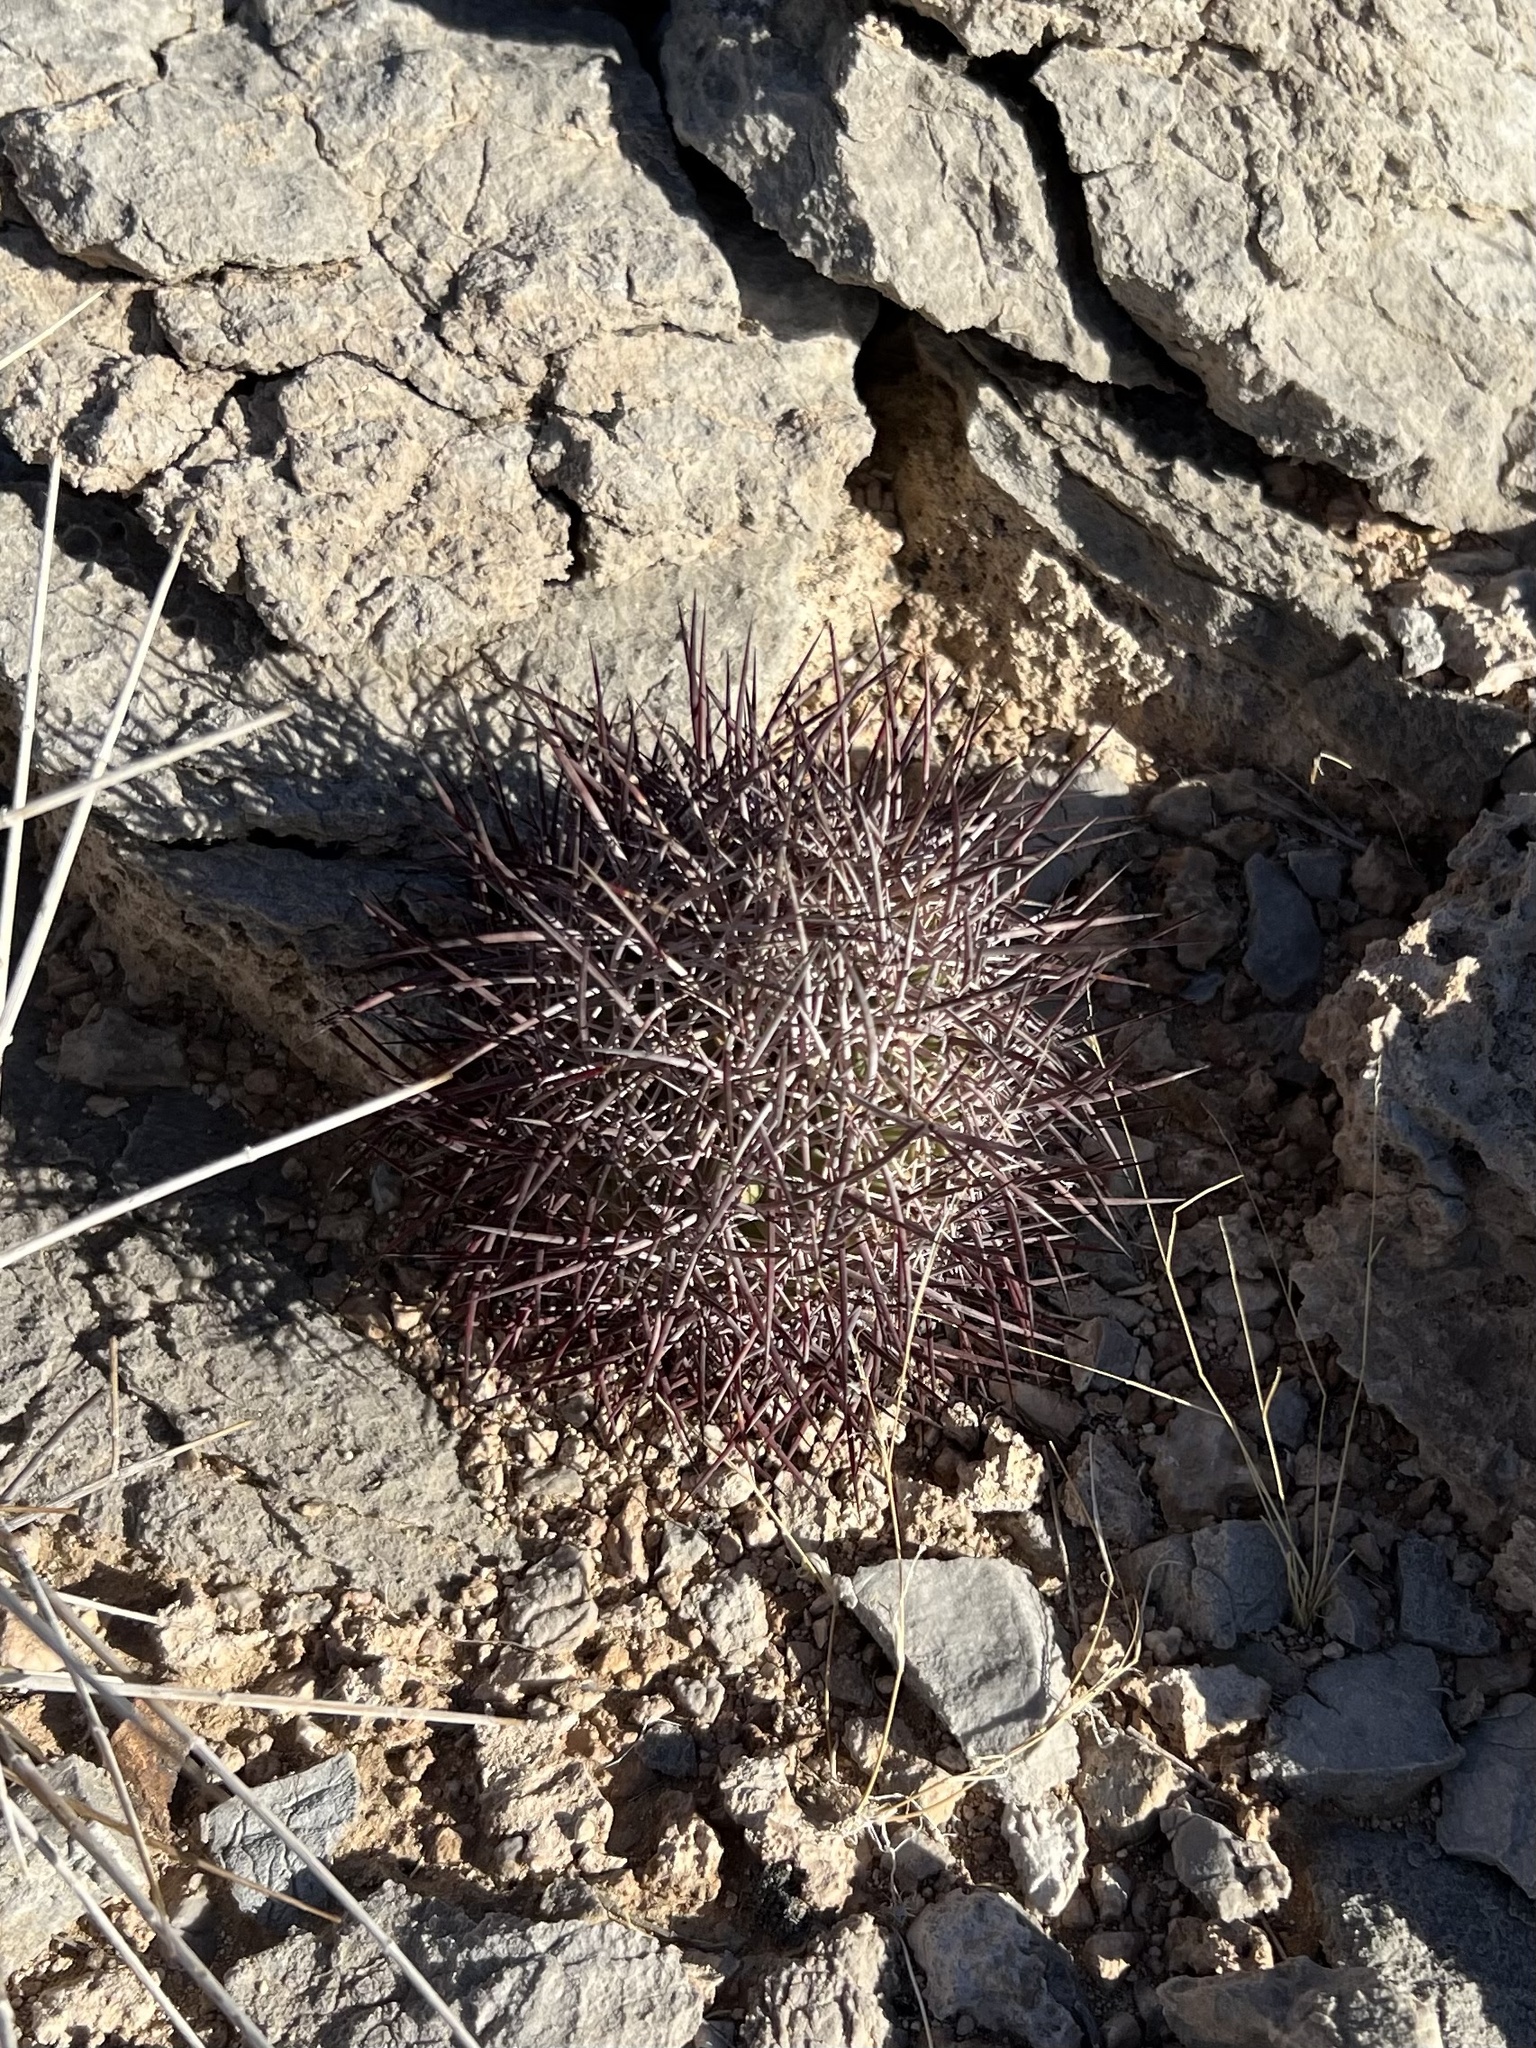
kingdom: Plantae
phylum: Tracheophyta
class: Magnoliopsida
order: Caryophyllales
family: Cactaceae
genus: Sclerocactus
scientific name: Sclerocactus johnsonii
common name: Eight-spine fishhook cactus
